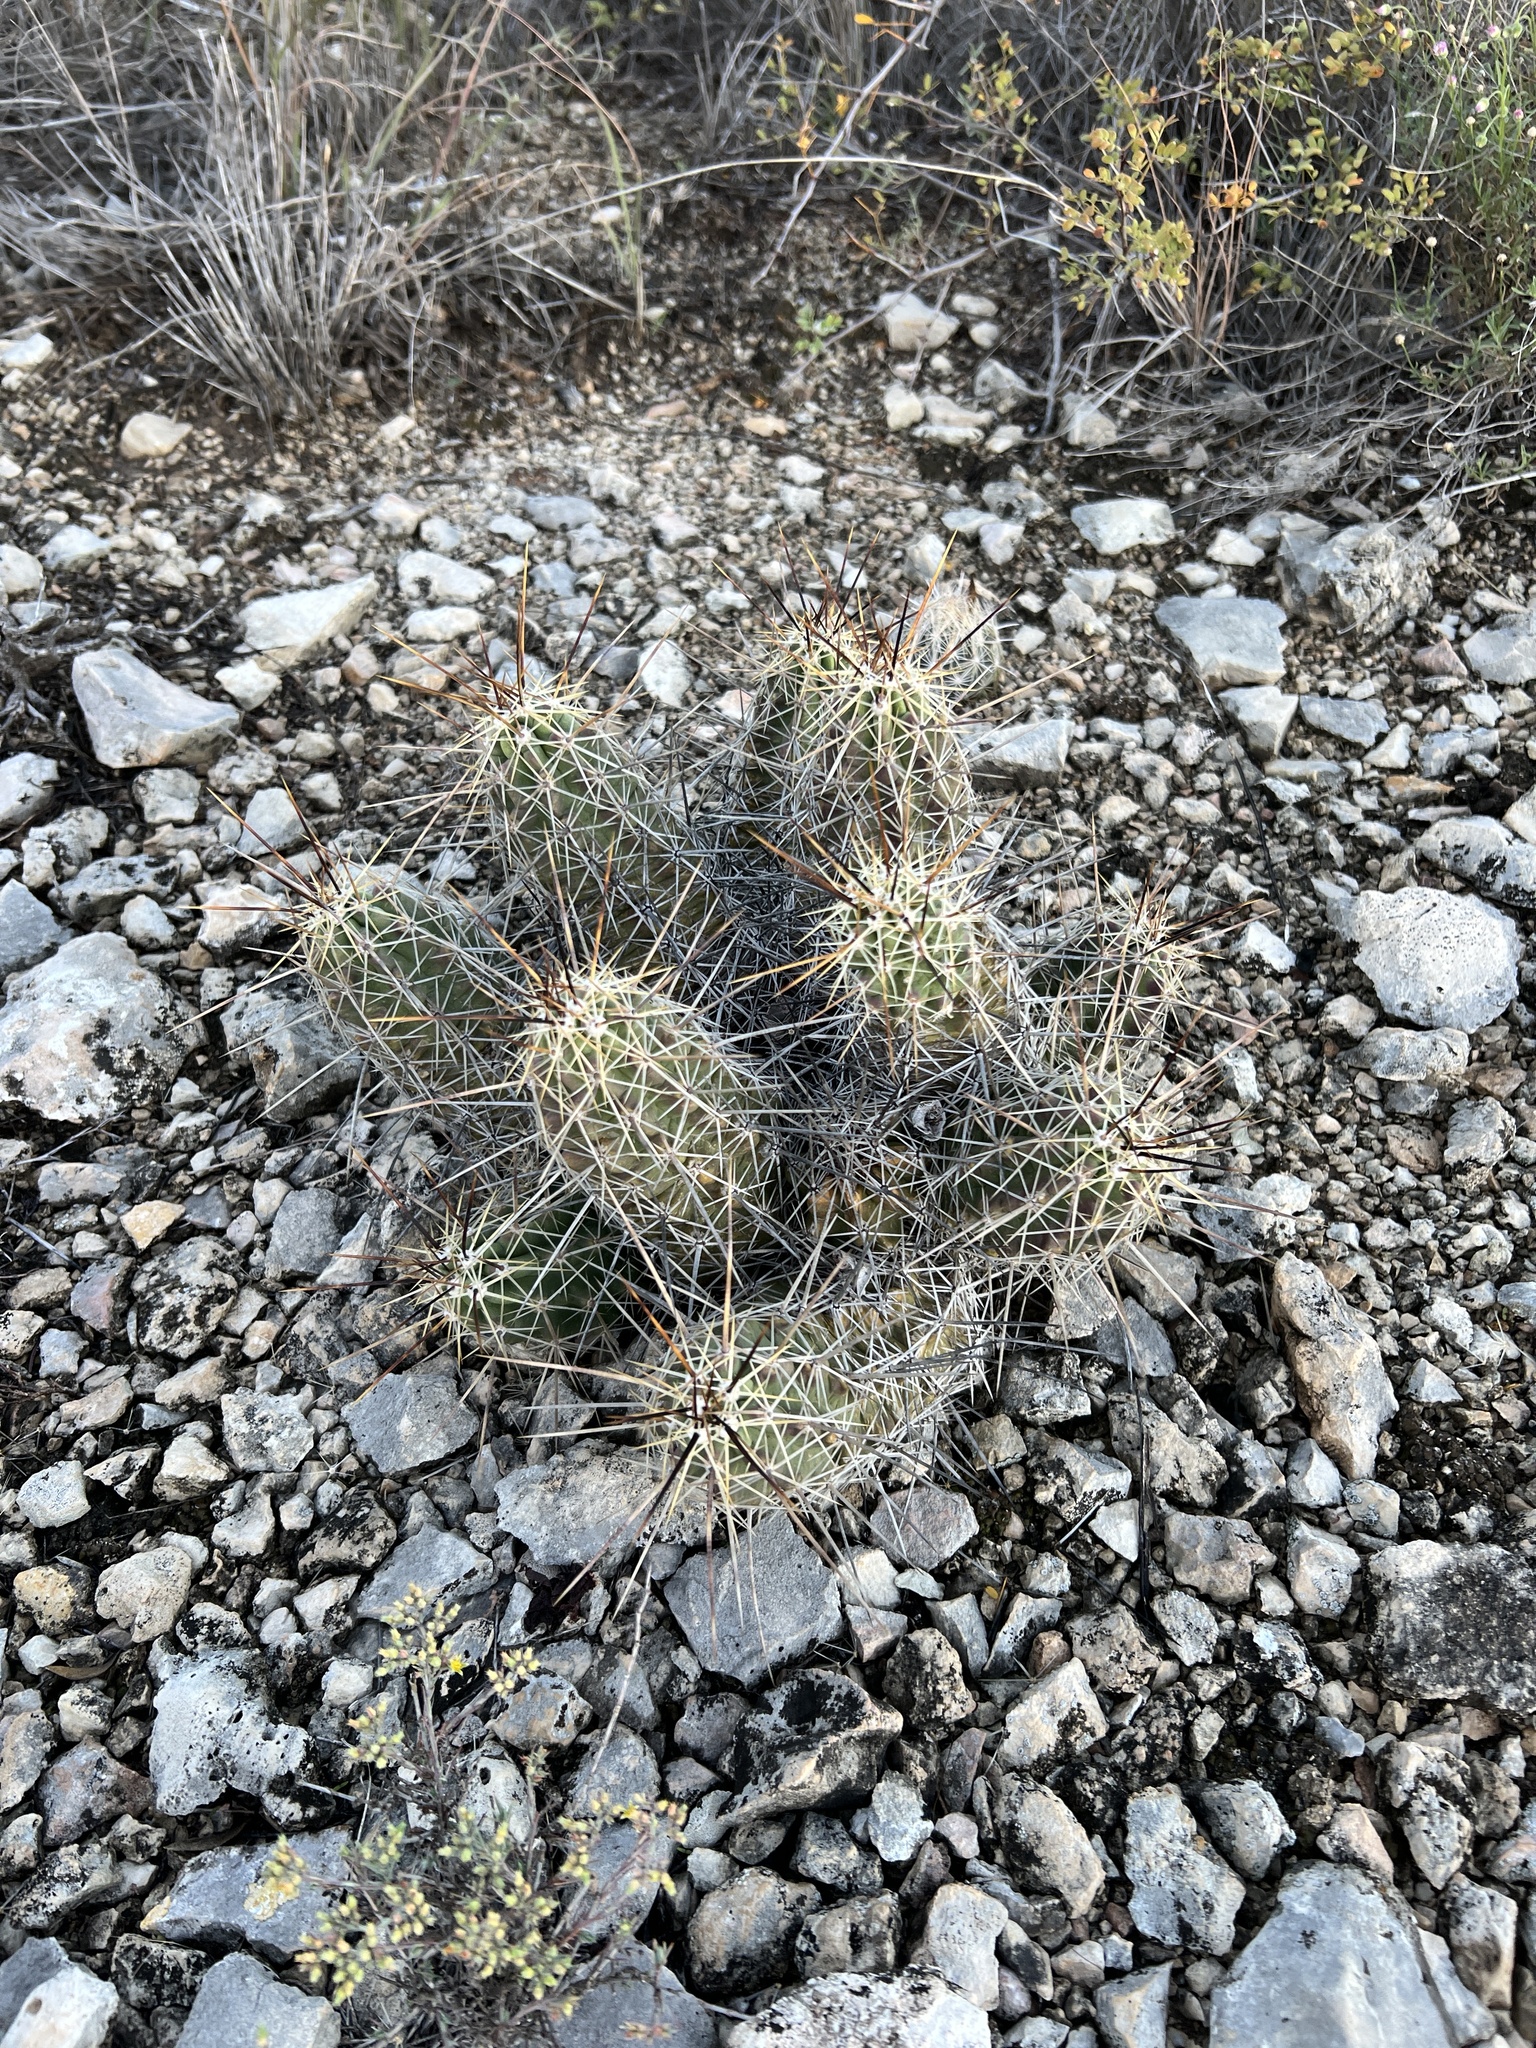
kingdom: Plantae
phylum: Tracheophyta
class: Magnoliopsida
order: Caryophyllales
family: Cactaceae
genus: Echinocereus
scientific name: Echinocereus enneacanthus
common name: Pitaya
